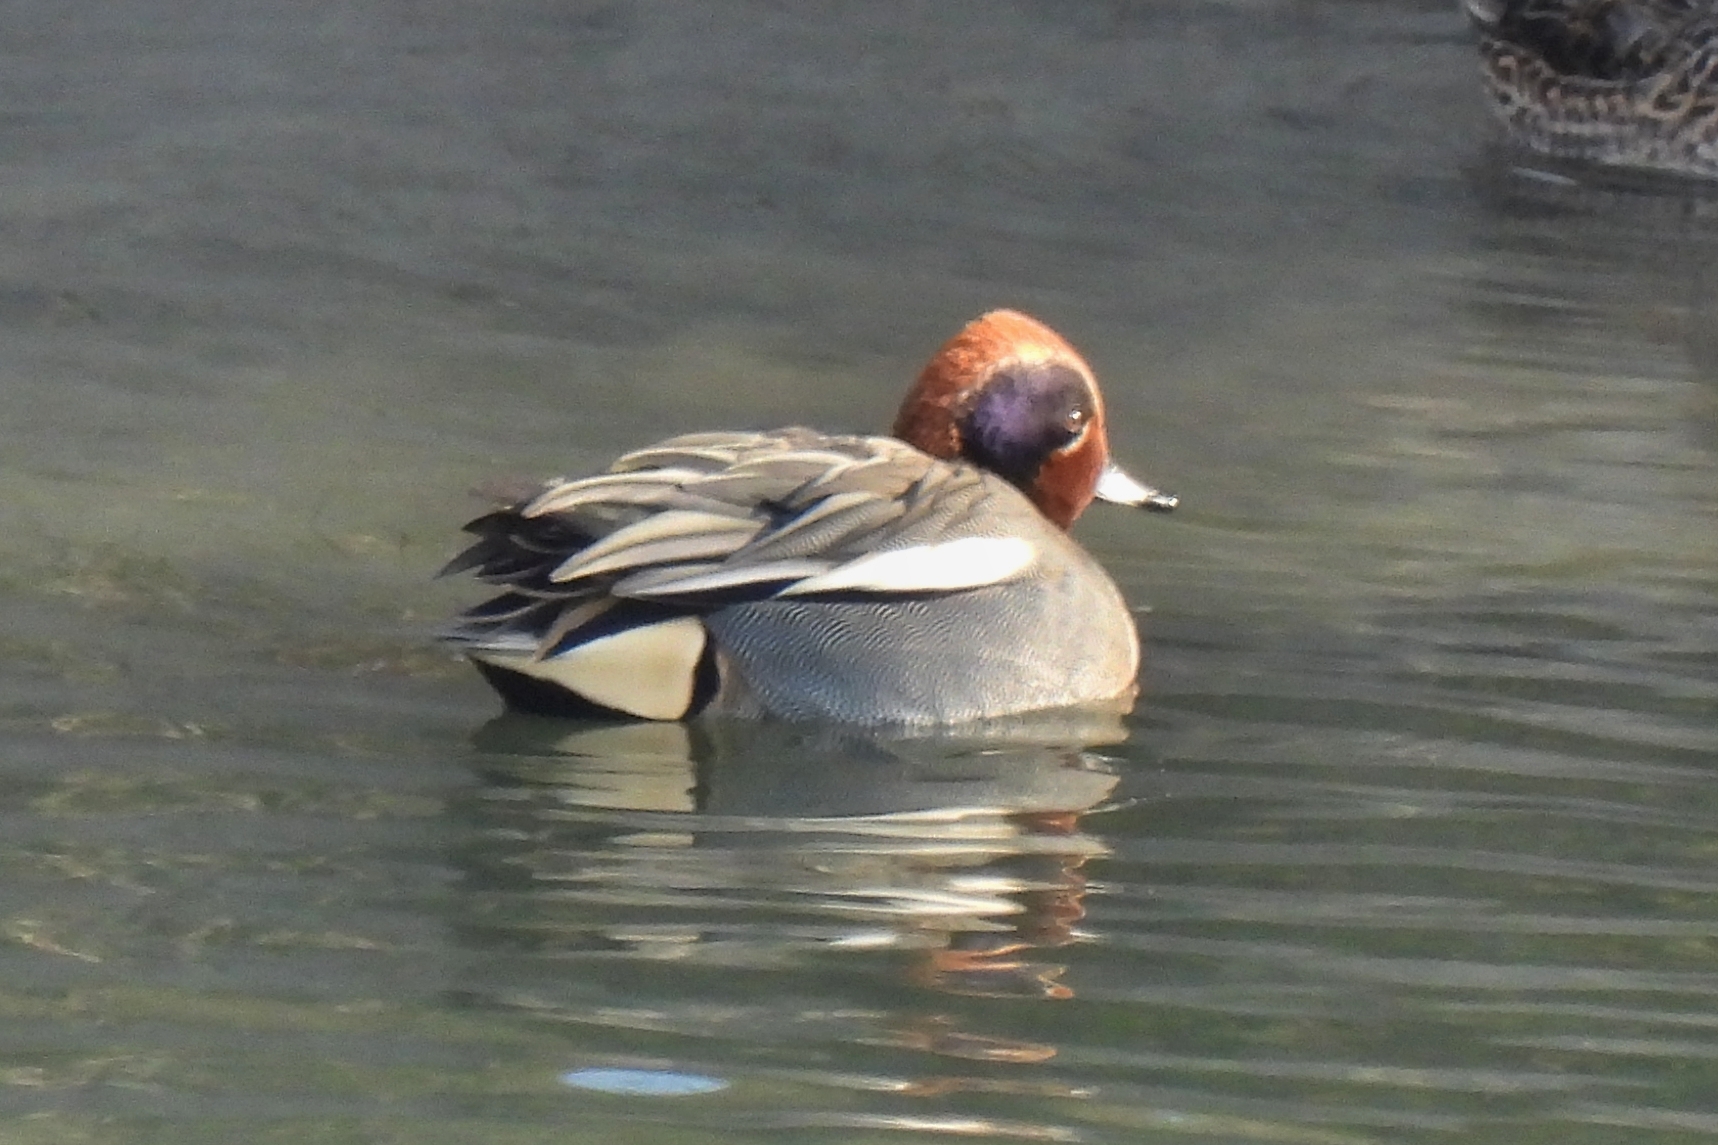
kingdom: Animalia
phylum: Chordata
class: Aves
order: Anseriformes
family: Anatidae
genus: Anas
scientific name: Anas crecca
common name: Eurasian teal
